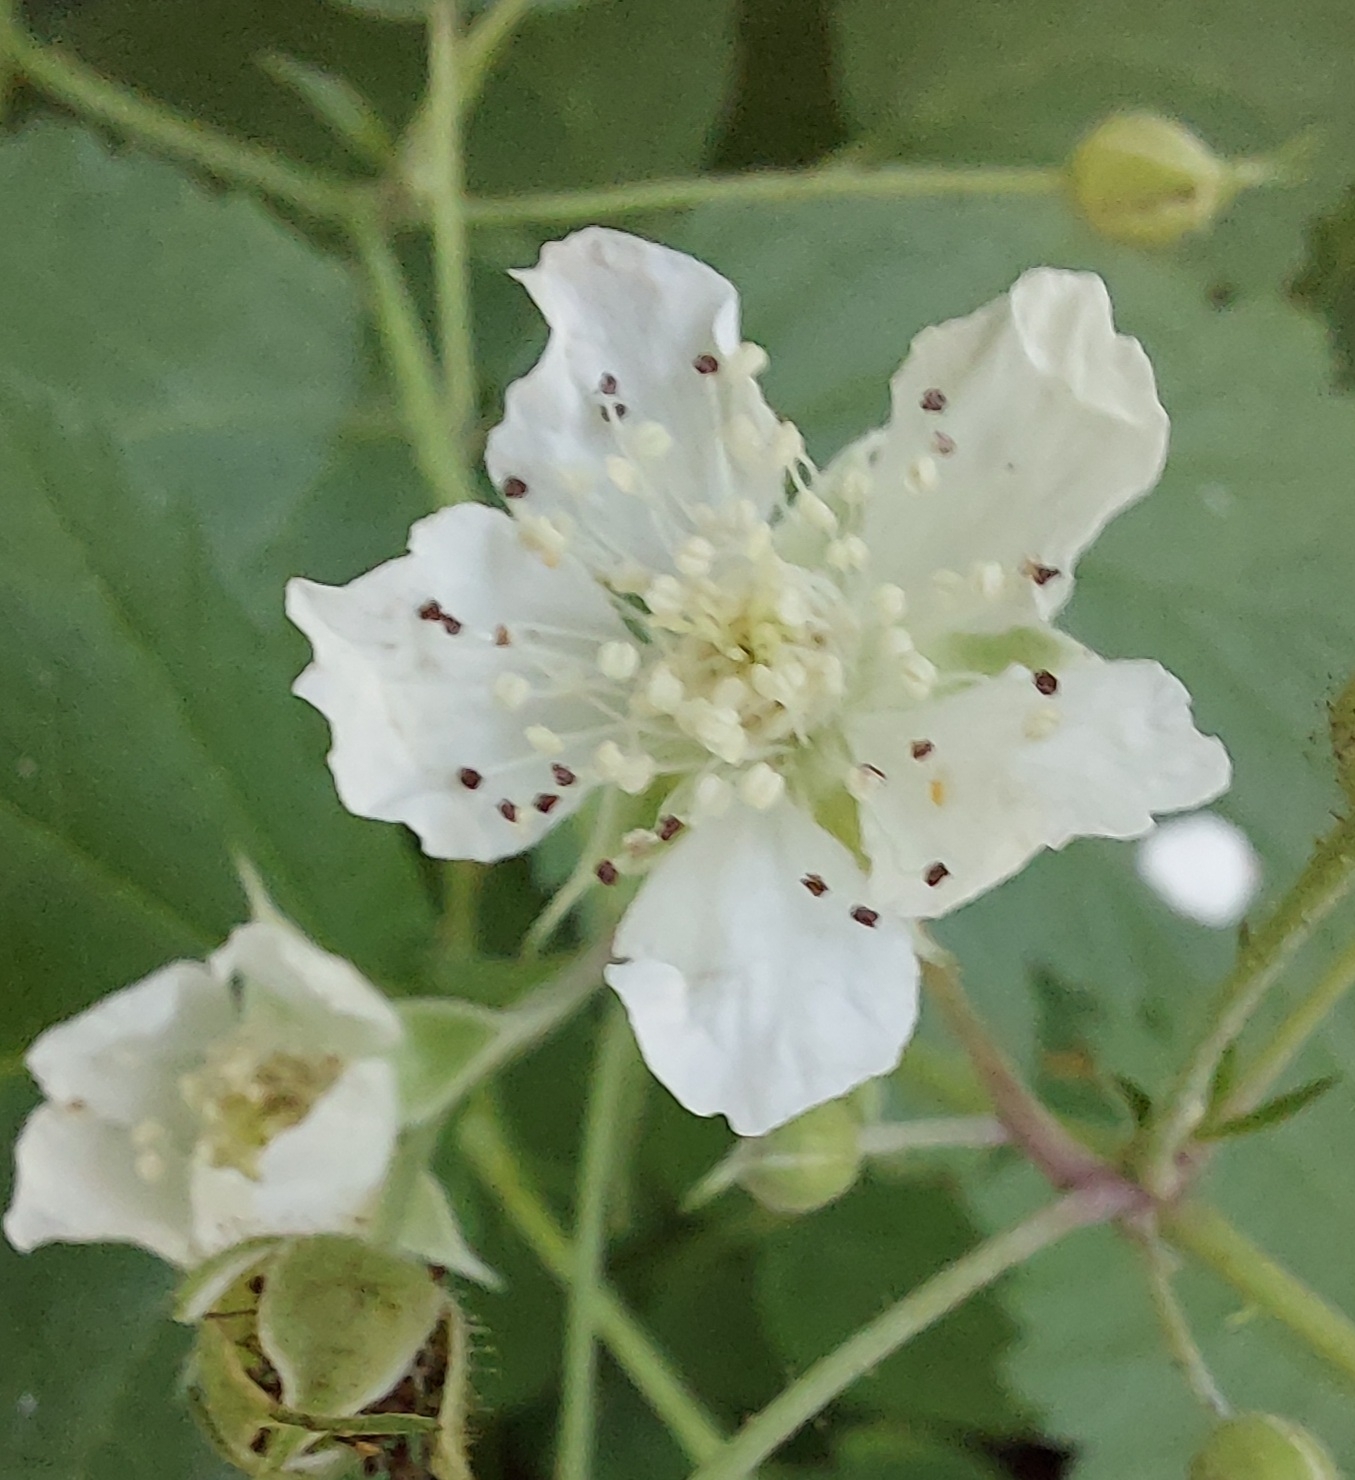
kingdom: Plantae
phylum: Tracheophyta
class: Magnoliopsida
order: Rosales
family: Rosaceae
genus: Rubus
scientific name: Rubus caesius
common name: Dewberry
